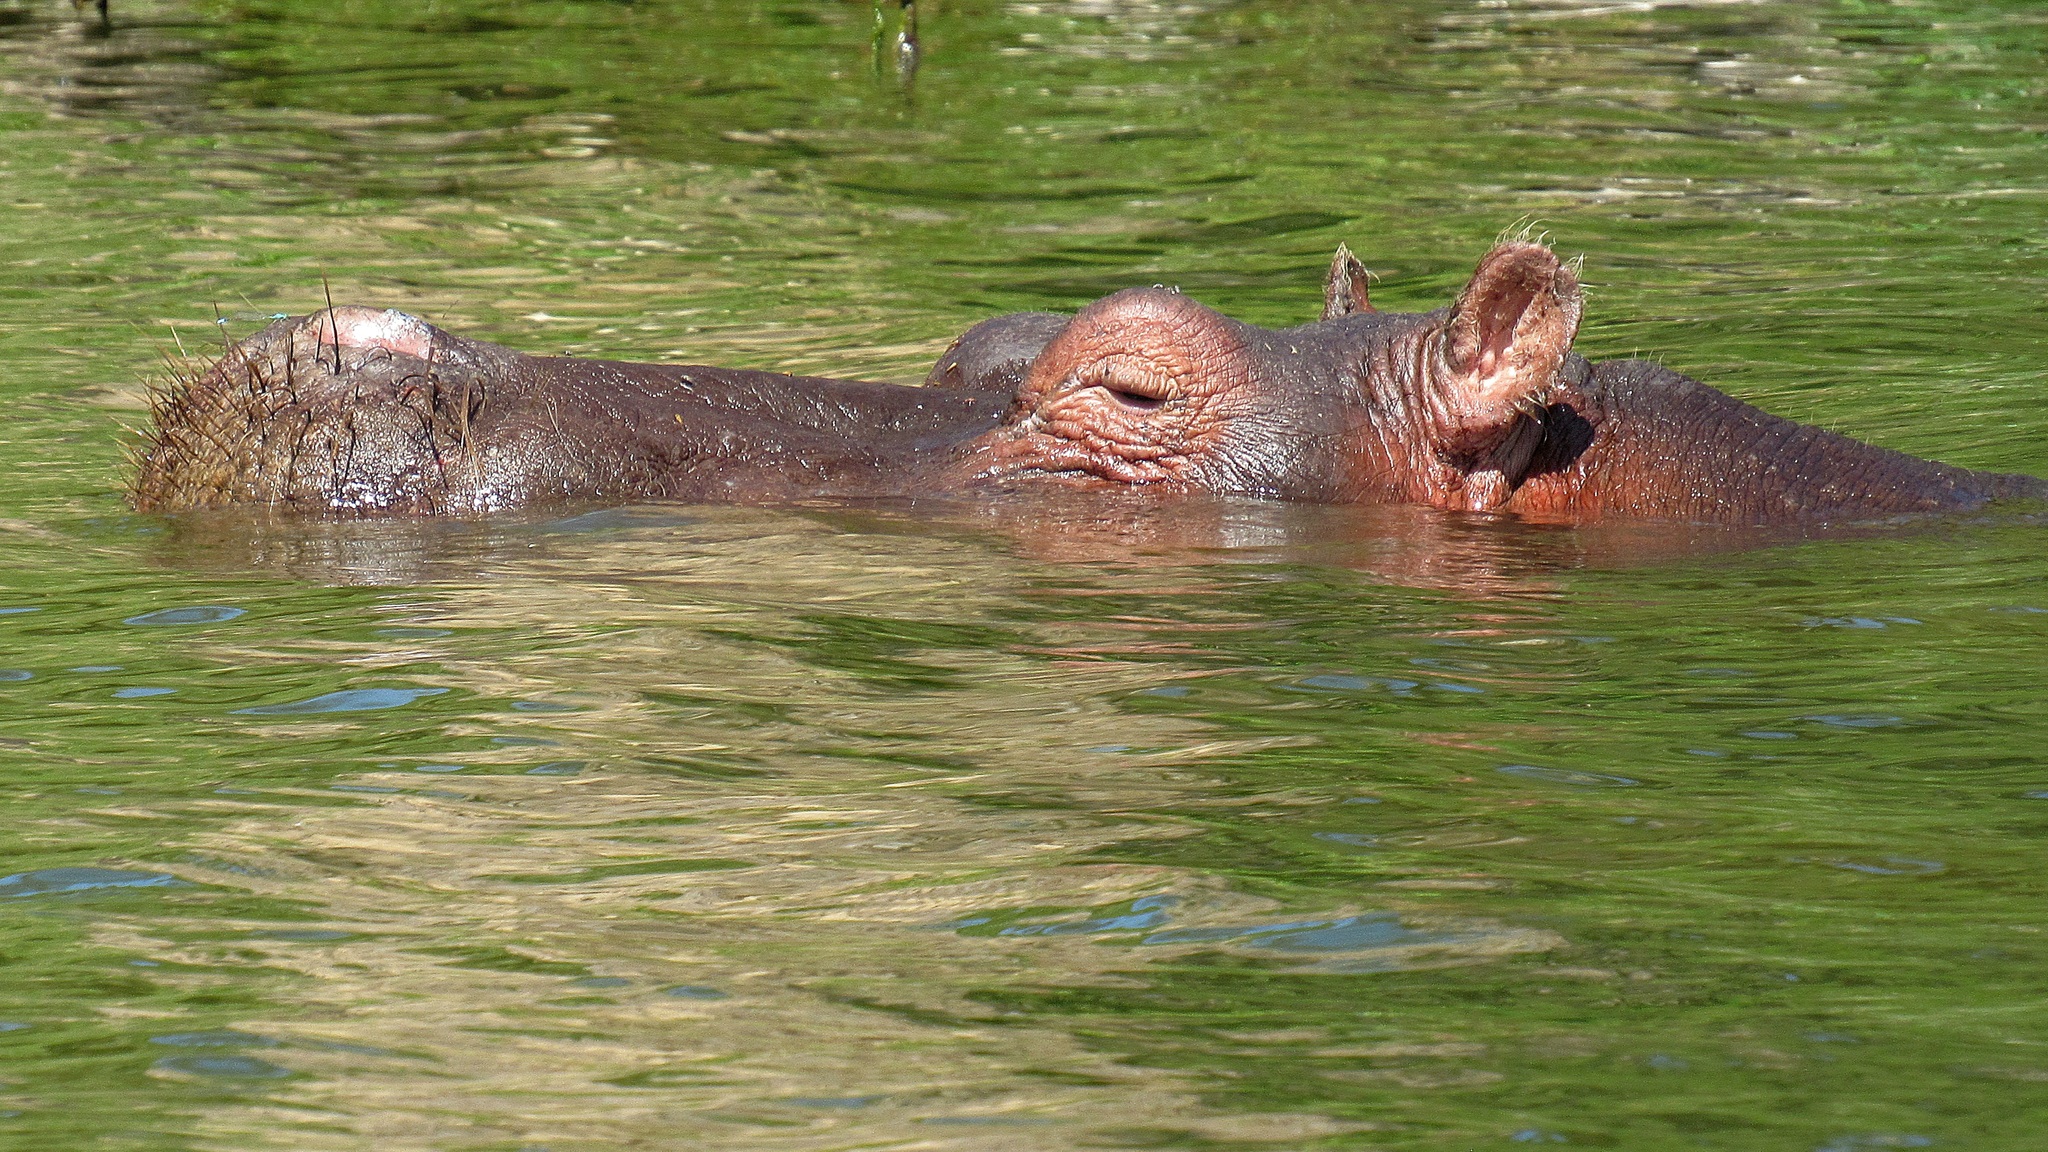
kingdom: Animalia
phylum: Chordata
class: Mammalia
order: Artiodactyla
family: Hippopotamidae
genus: Hippopotamus
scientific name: Hippopotamus amphibius
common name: Common hippopotamus
